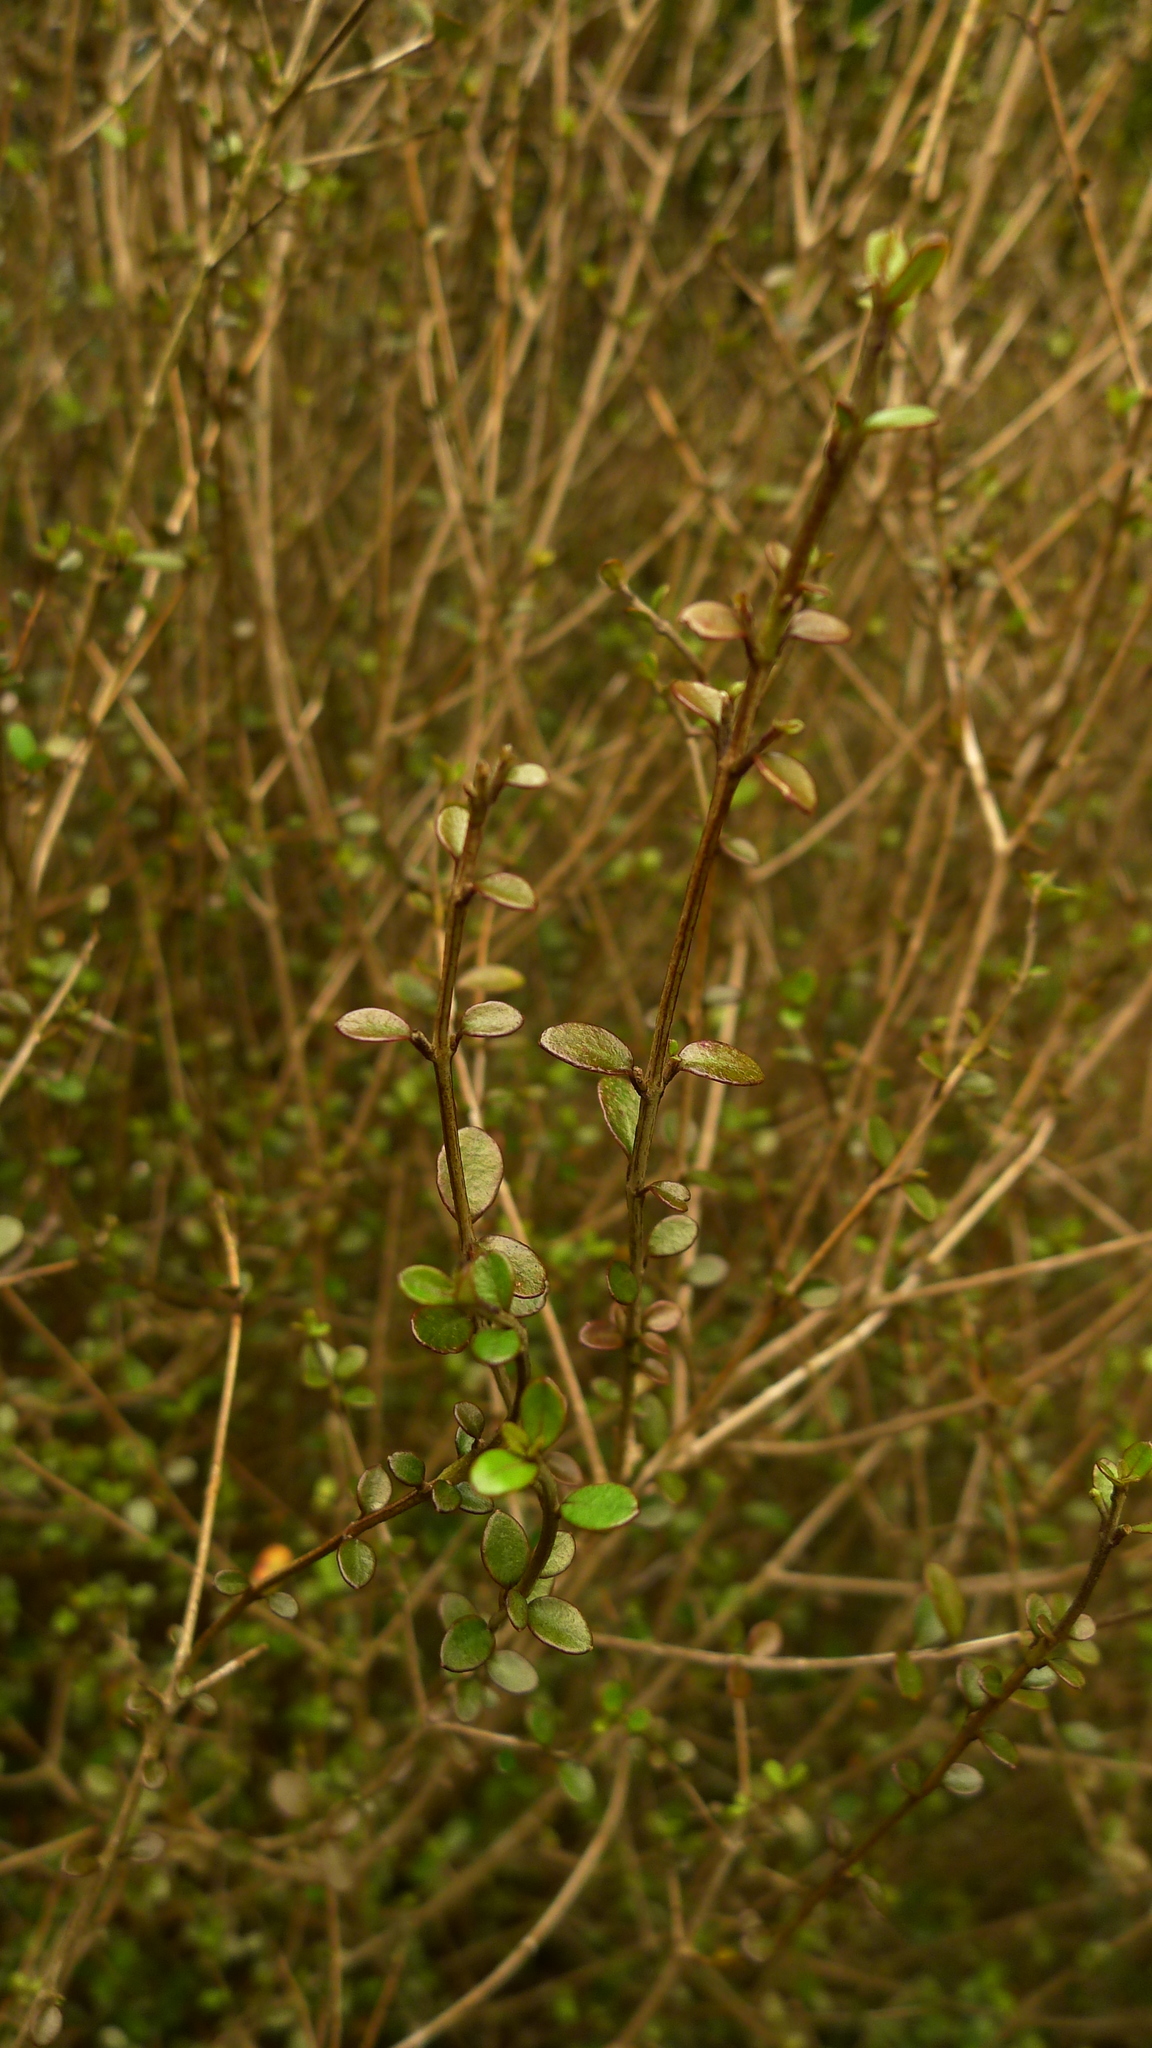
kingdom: Plantae
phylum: Tracheophyta
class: Magnoliopsida
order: Myrtales
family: Myrtaceae
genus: Neomyrtus
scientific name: Neomyrtus pedunculata
